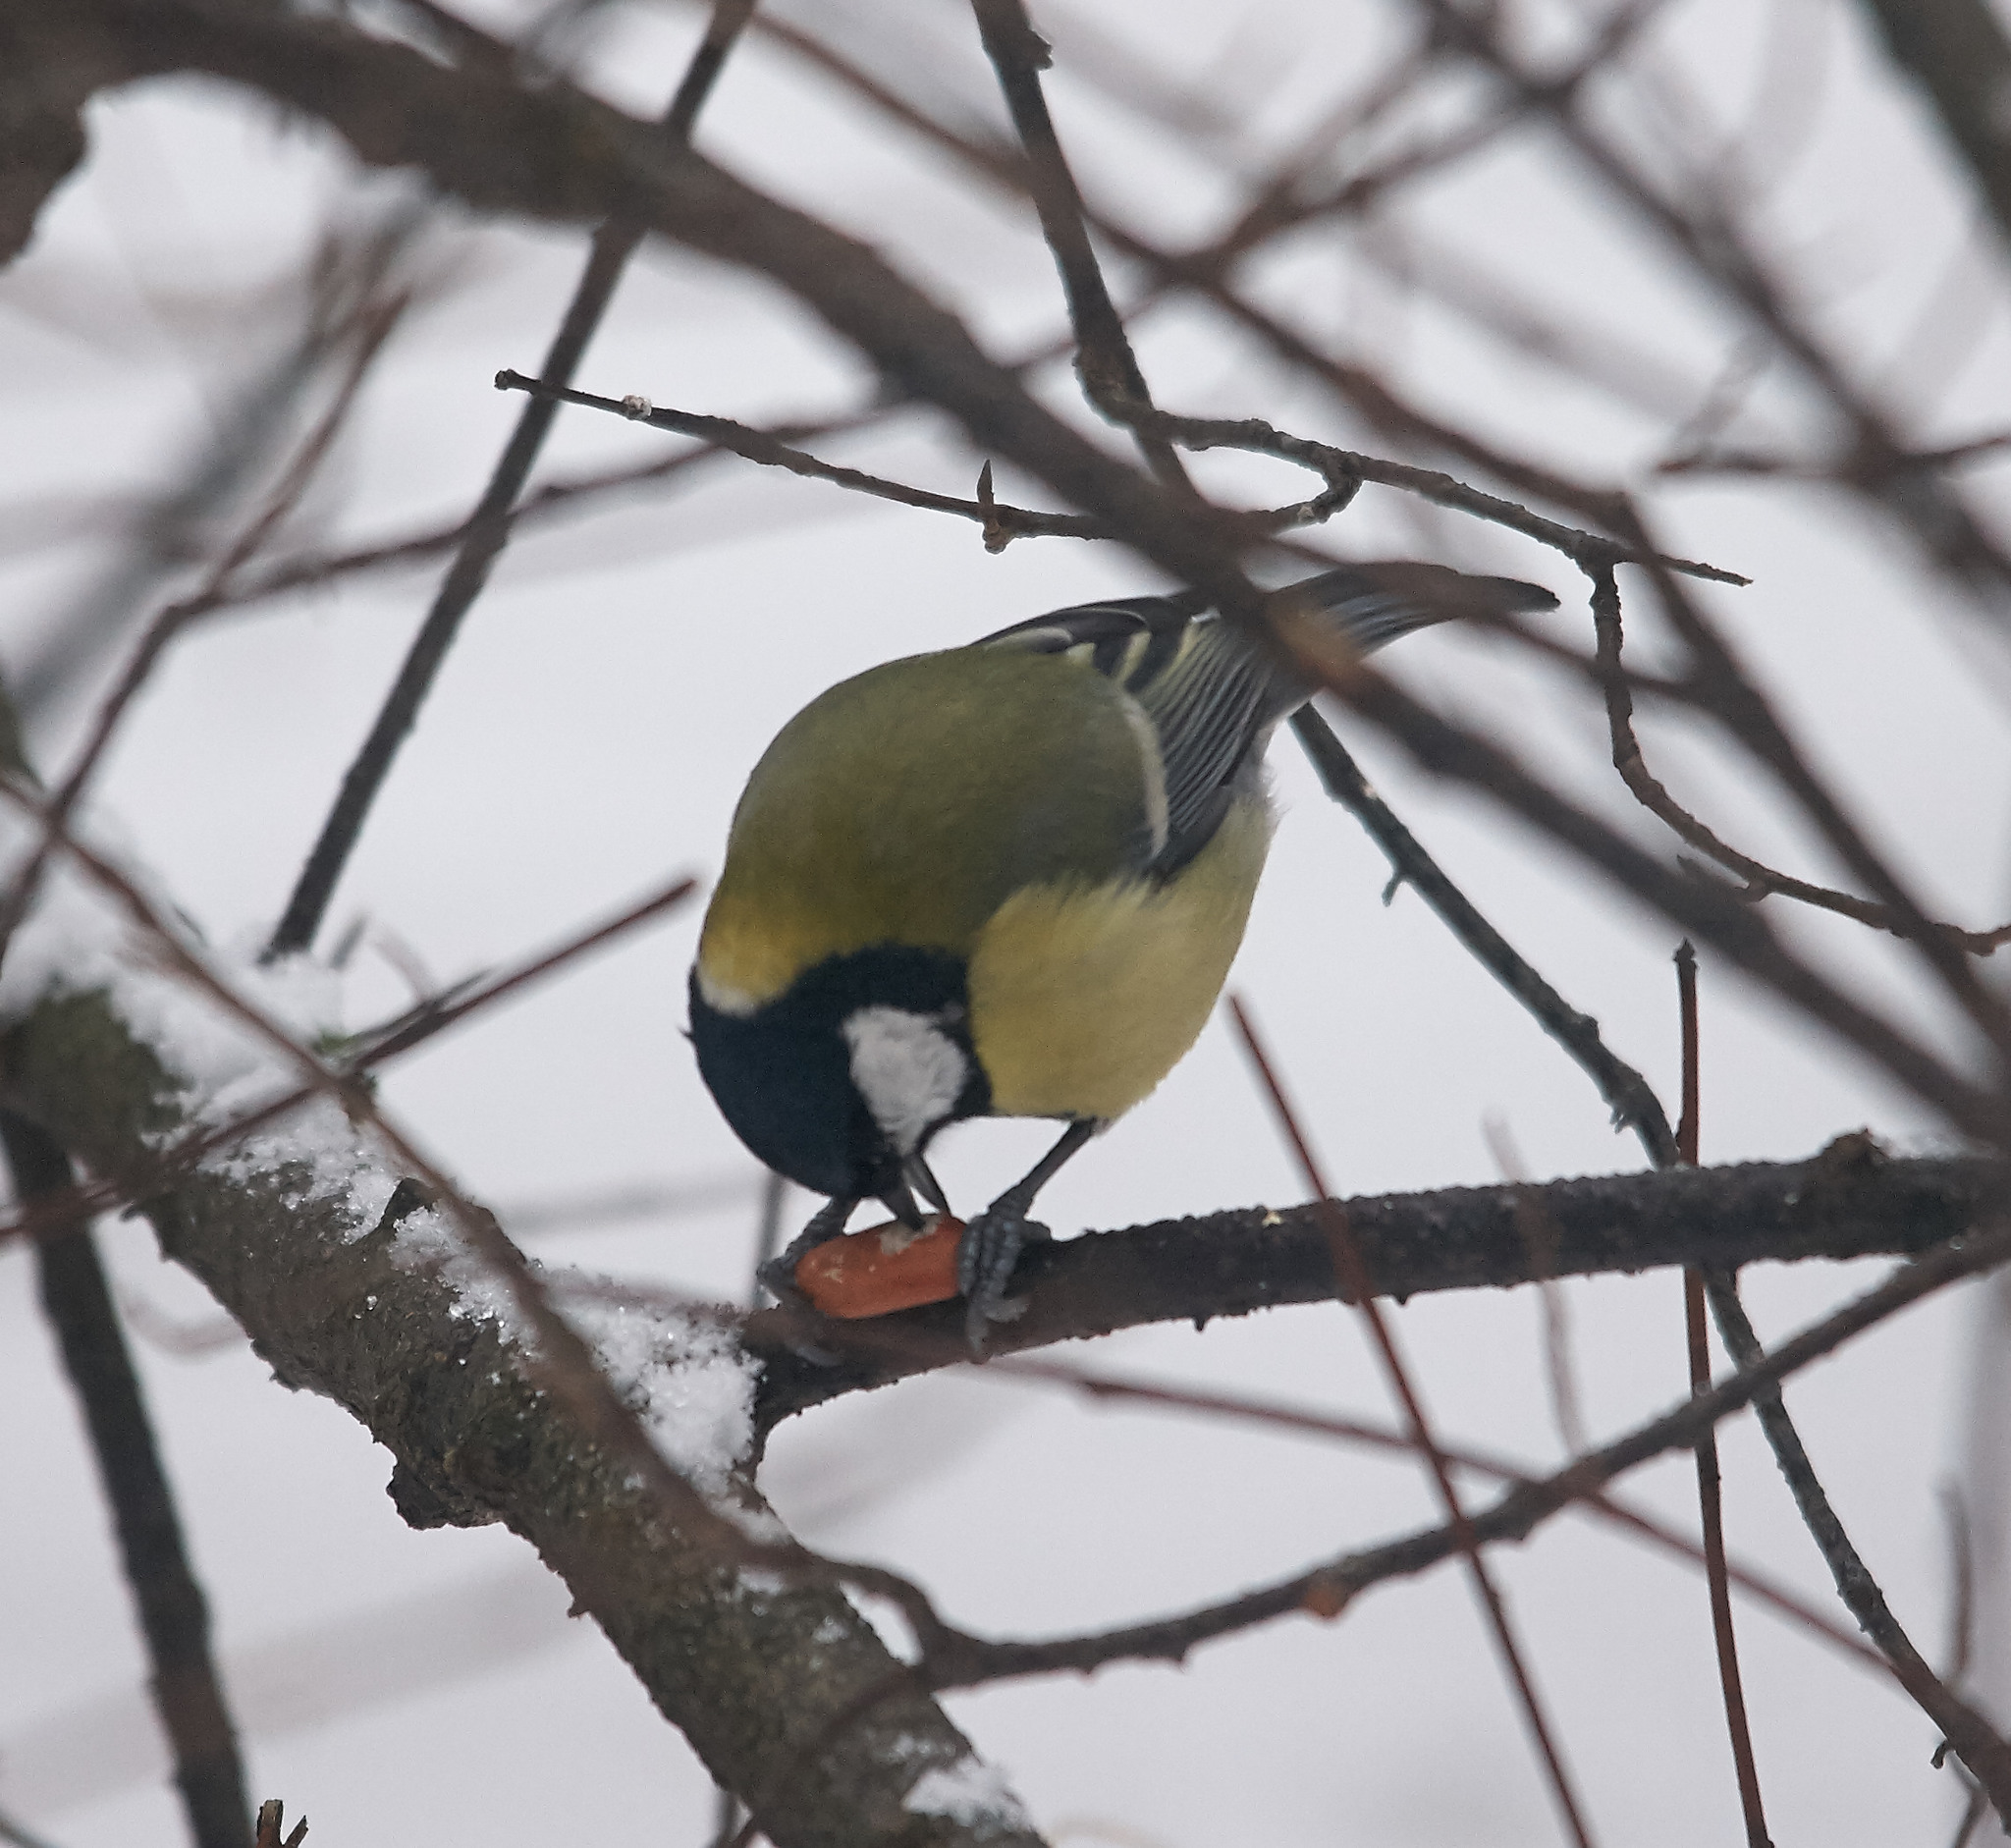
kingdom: Animalia
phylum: Chordata
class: Aves
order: Passeriformes
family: Paridae
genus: Parus
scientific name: Parus major
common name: Great tit
